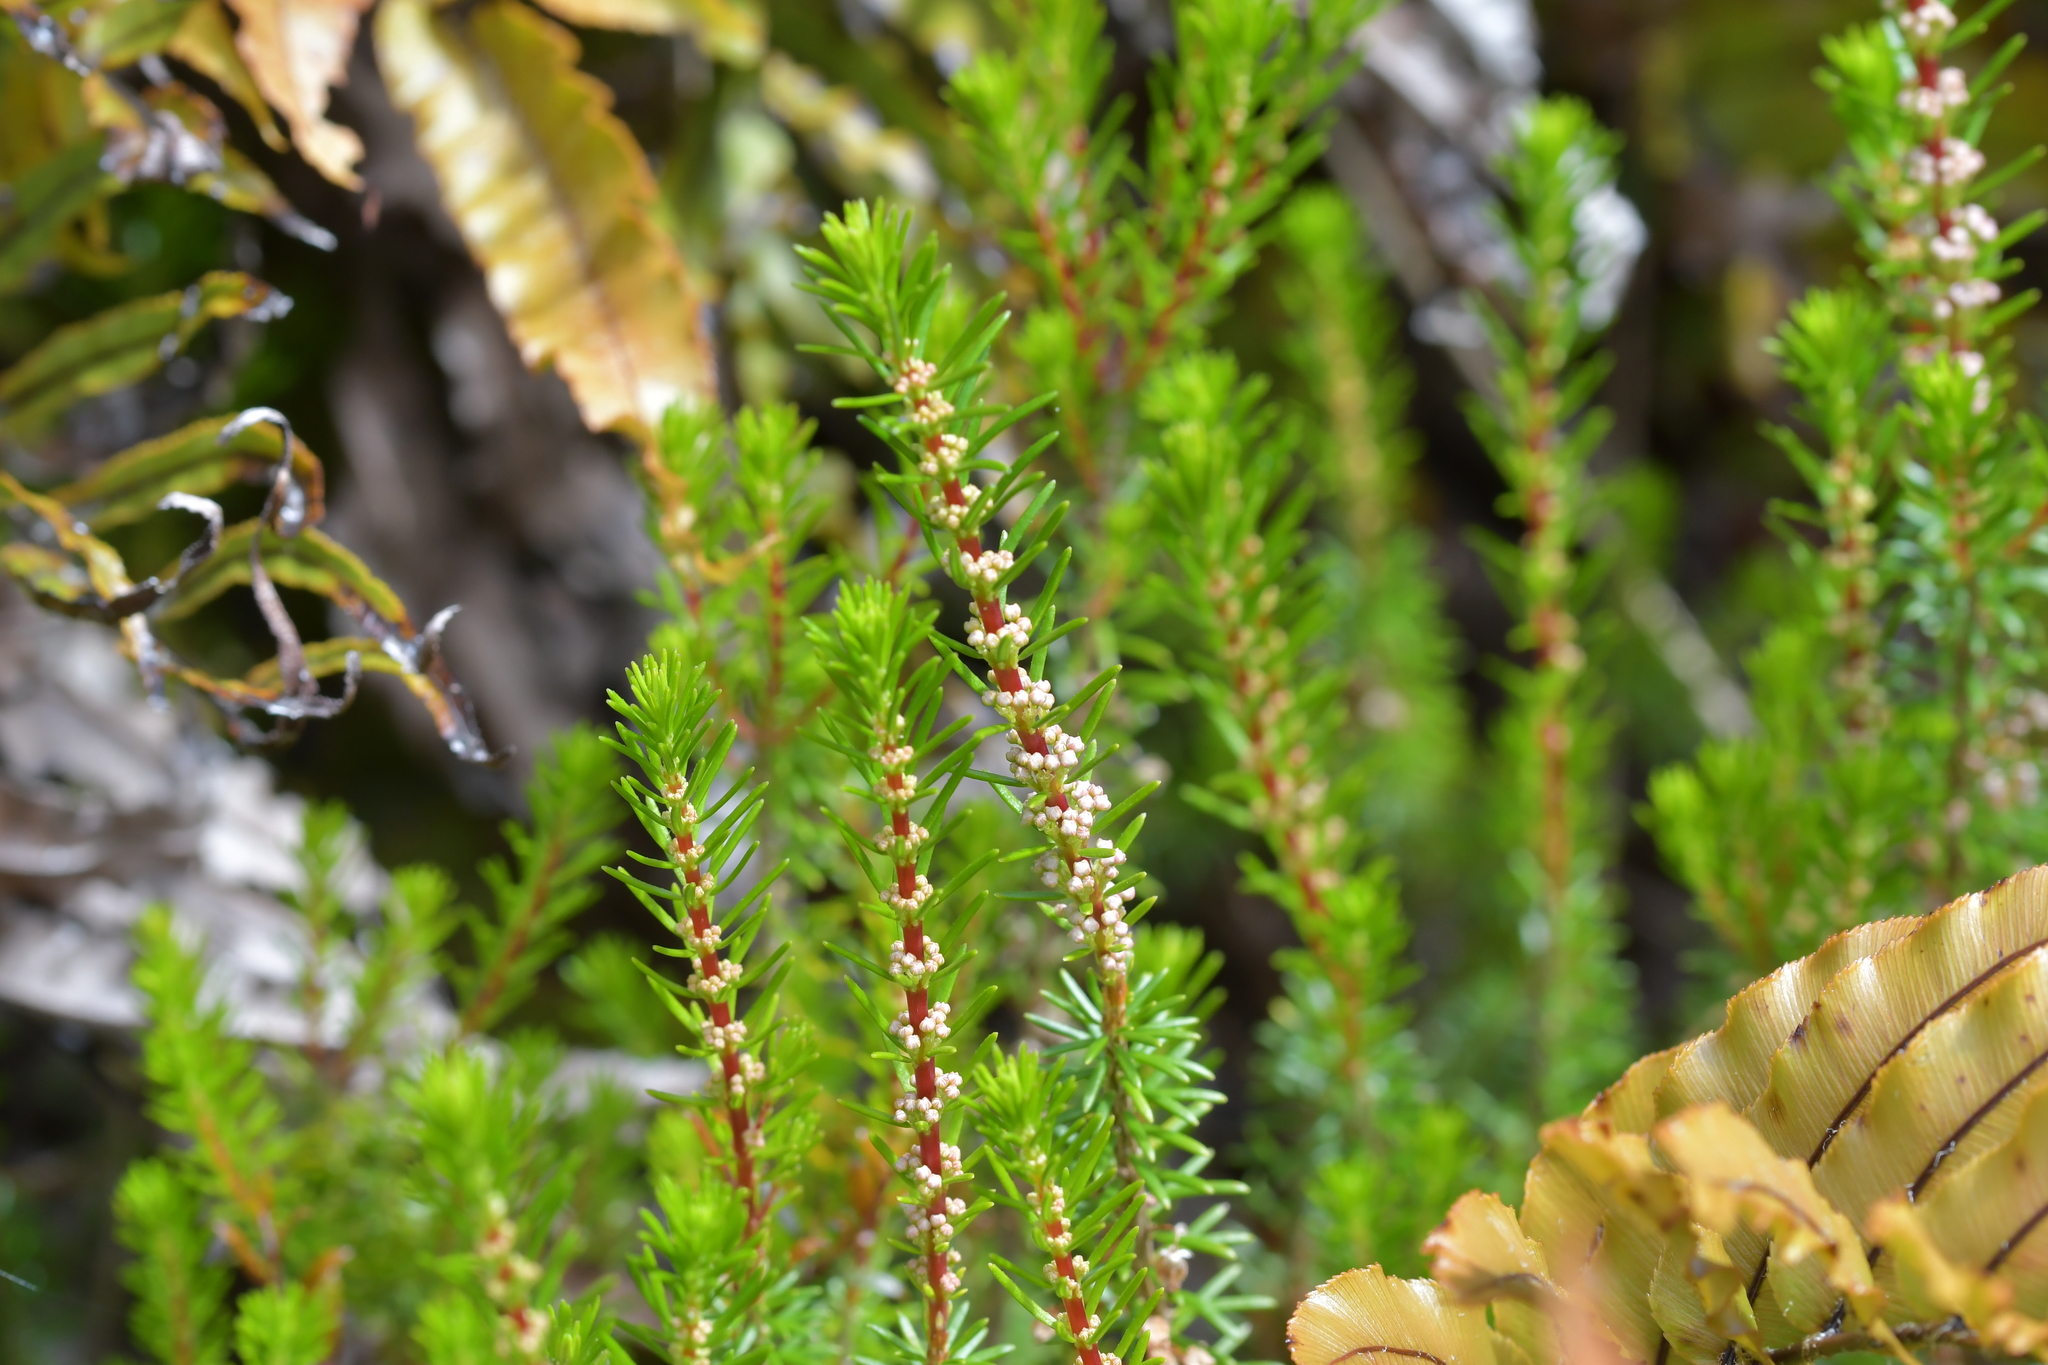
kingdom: Plantae
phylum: Tracheophyta
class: Magnoliopsida
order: Ericales
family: Ericaceae
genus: Erica
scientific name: Erica lusitanica
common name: Spanish heath
